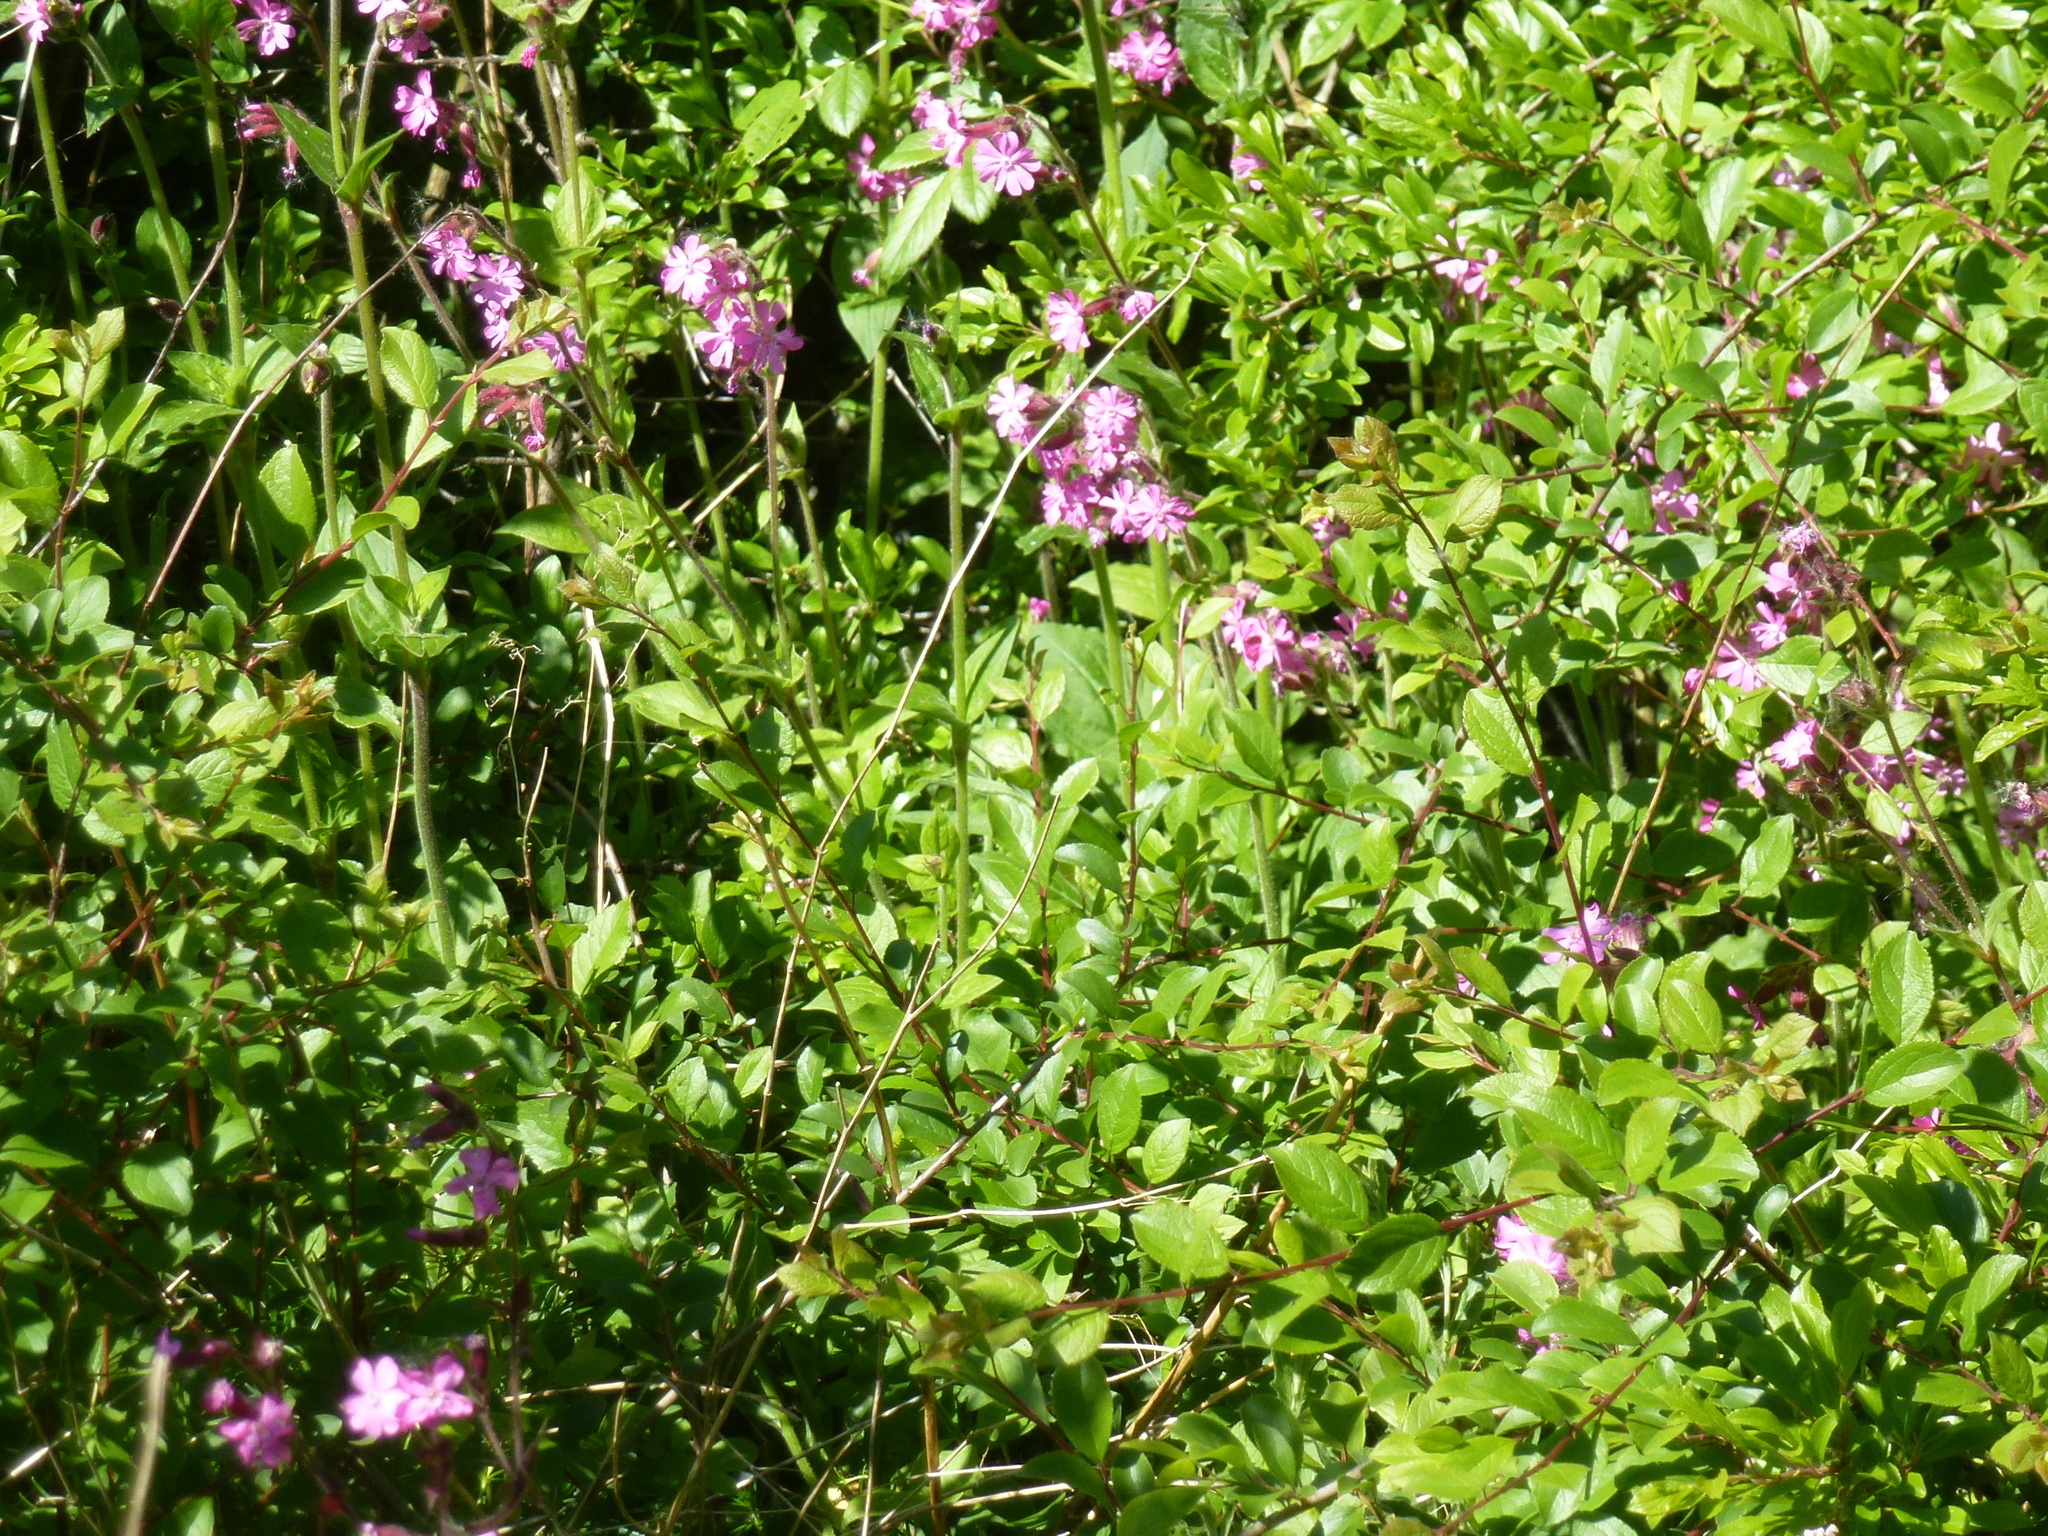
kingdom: Plantae
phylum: Tracheophyta
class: Magnoliopsida
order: Caryophyllales
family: Caryophyllaceae
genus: Silene
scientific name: Silene dioica
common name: Red campion
